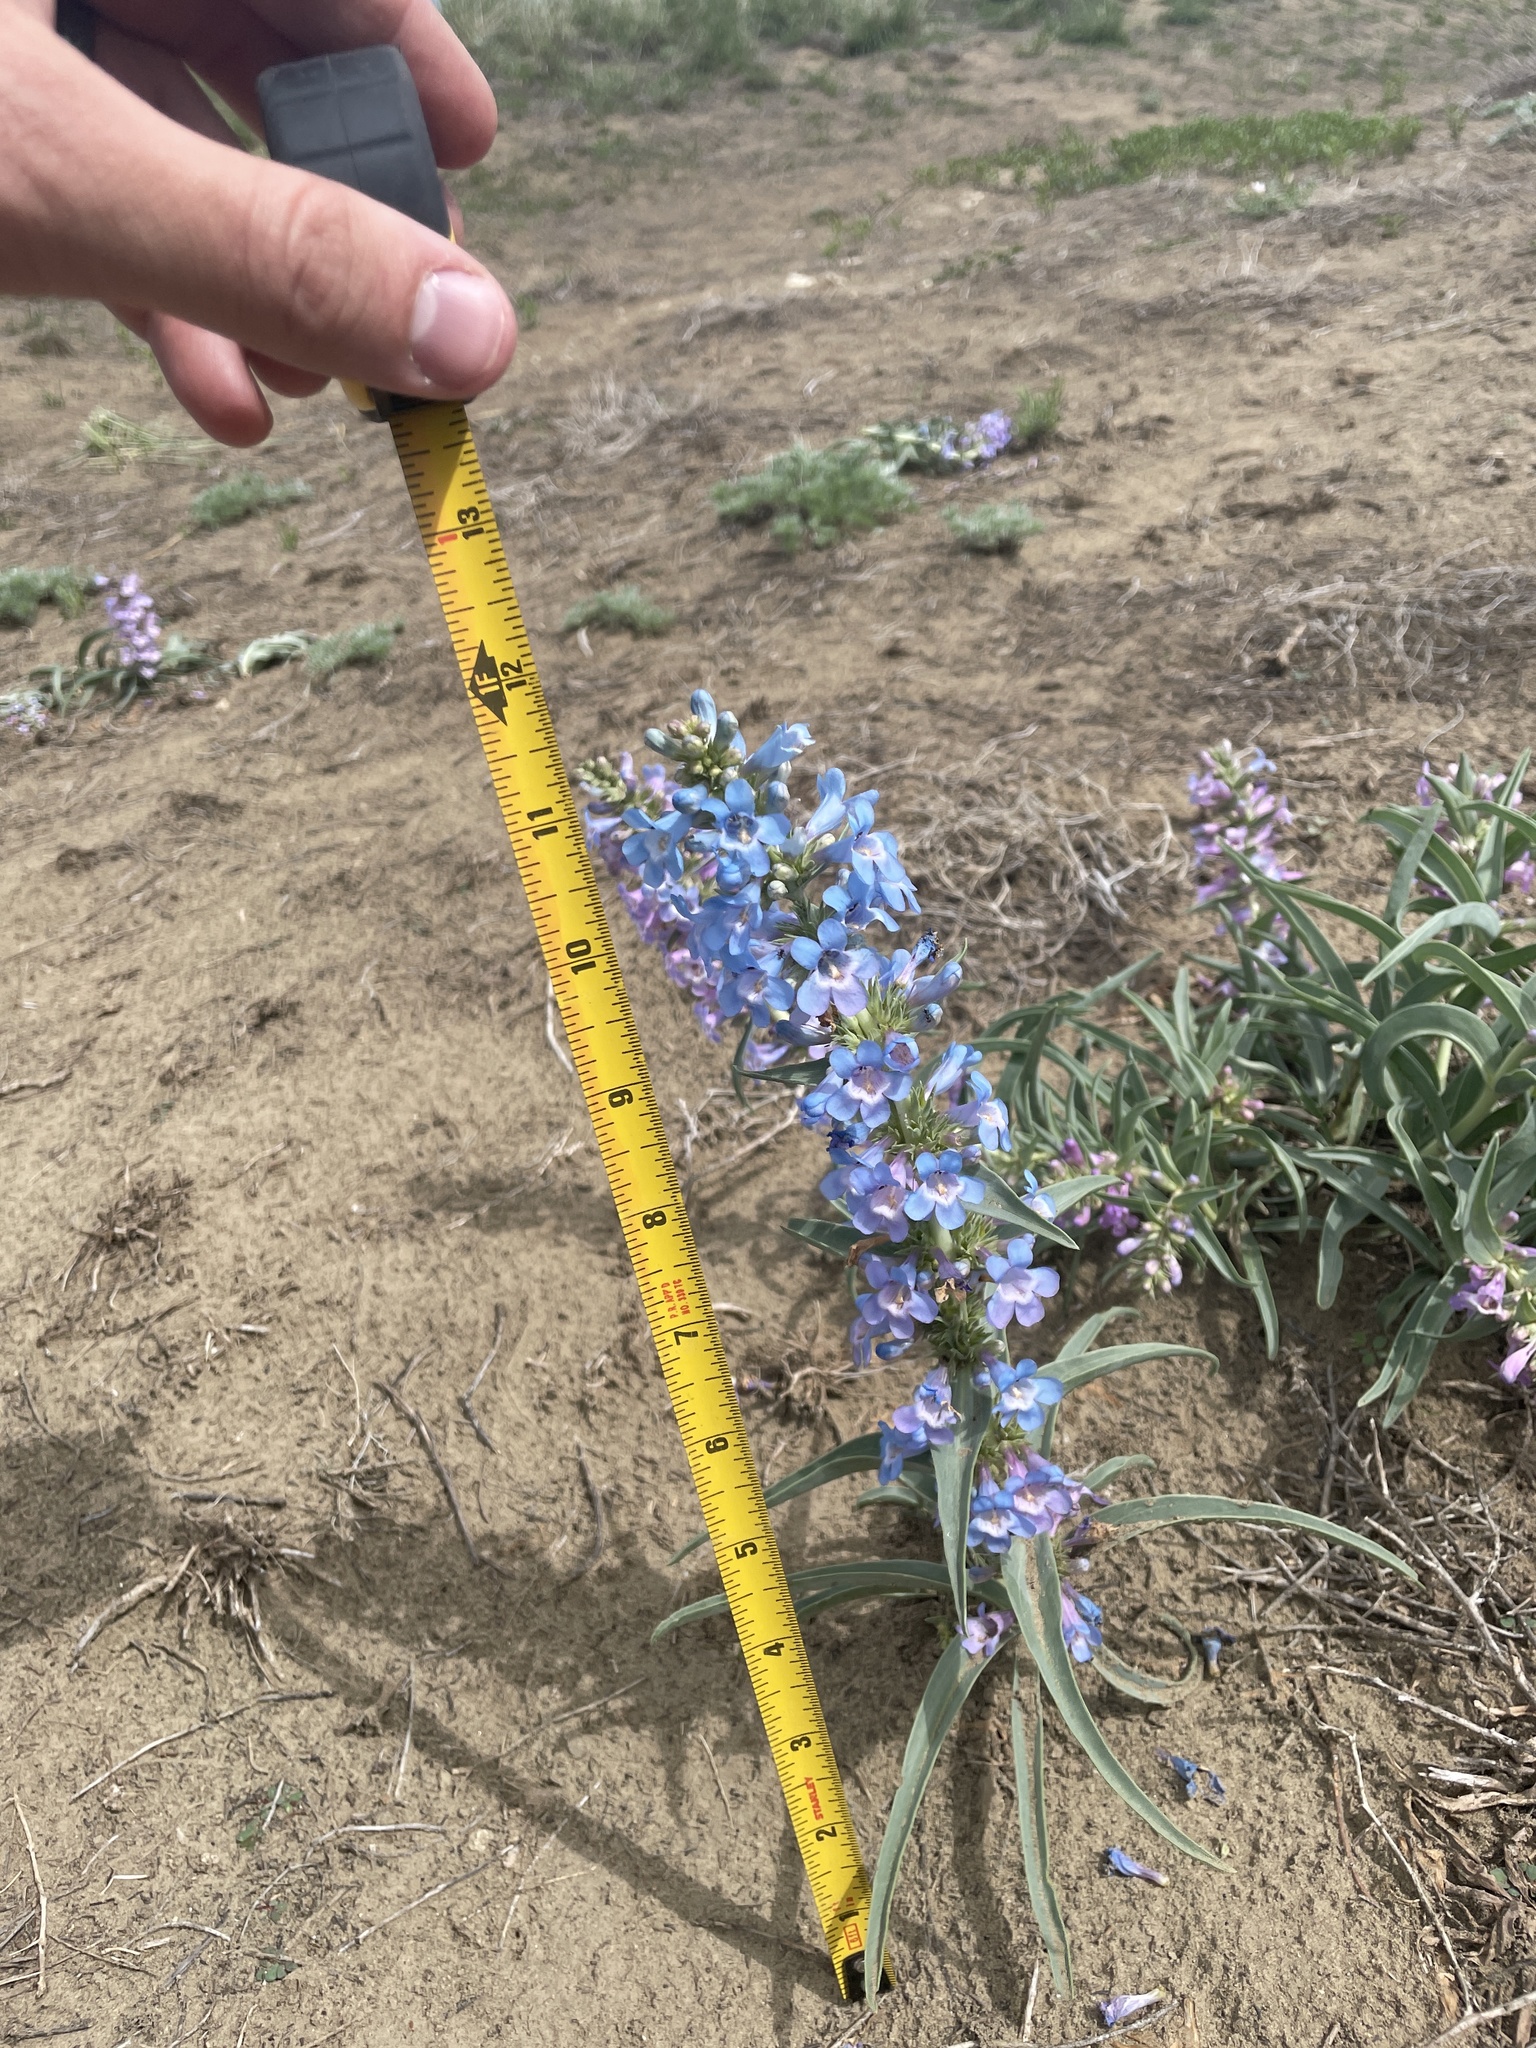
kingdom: Plantae
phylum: Tracheophyta
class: Magnoliopsida
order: Lamiales
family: Plantaginaceae
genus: Penstemon
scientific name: Penstemon angustifolius
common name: Narrow beardtongue
